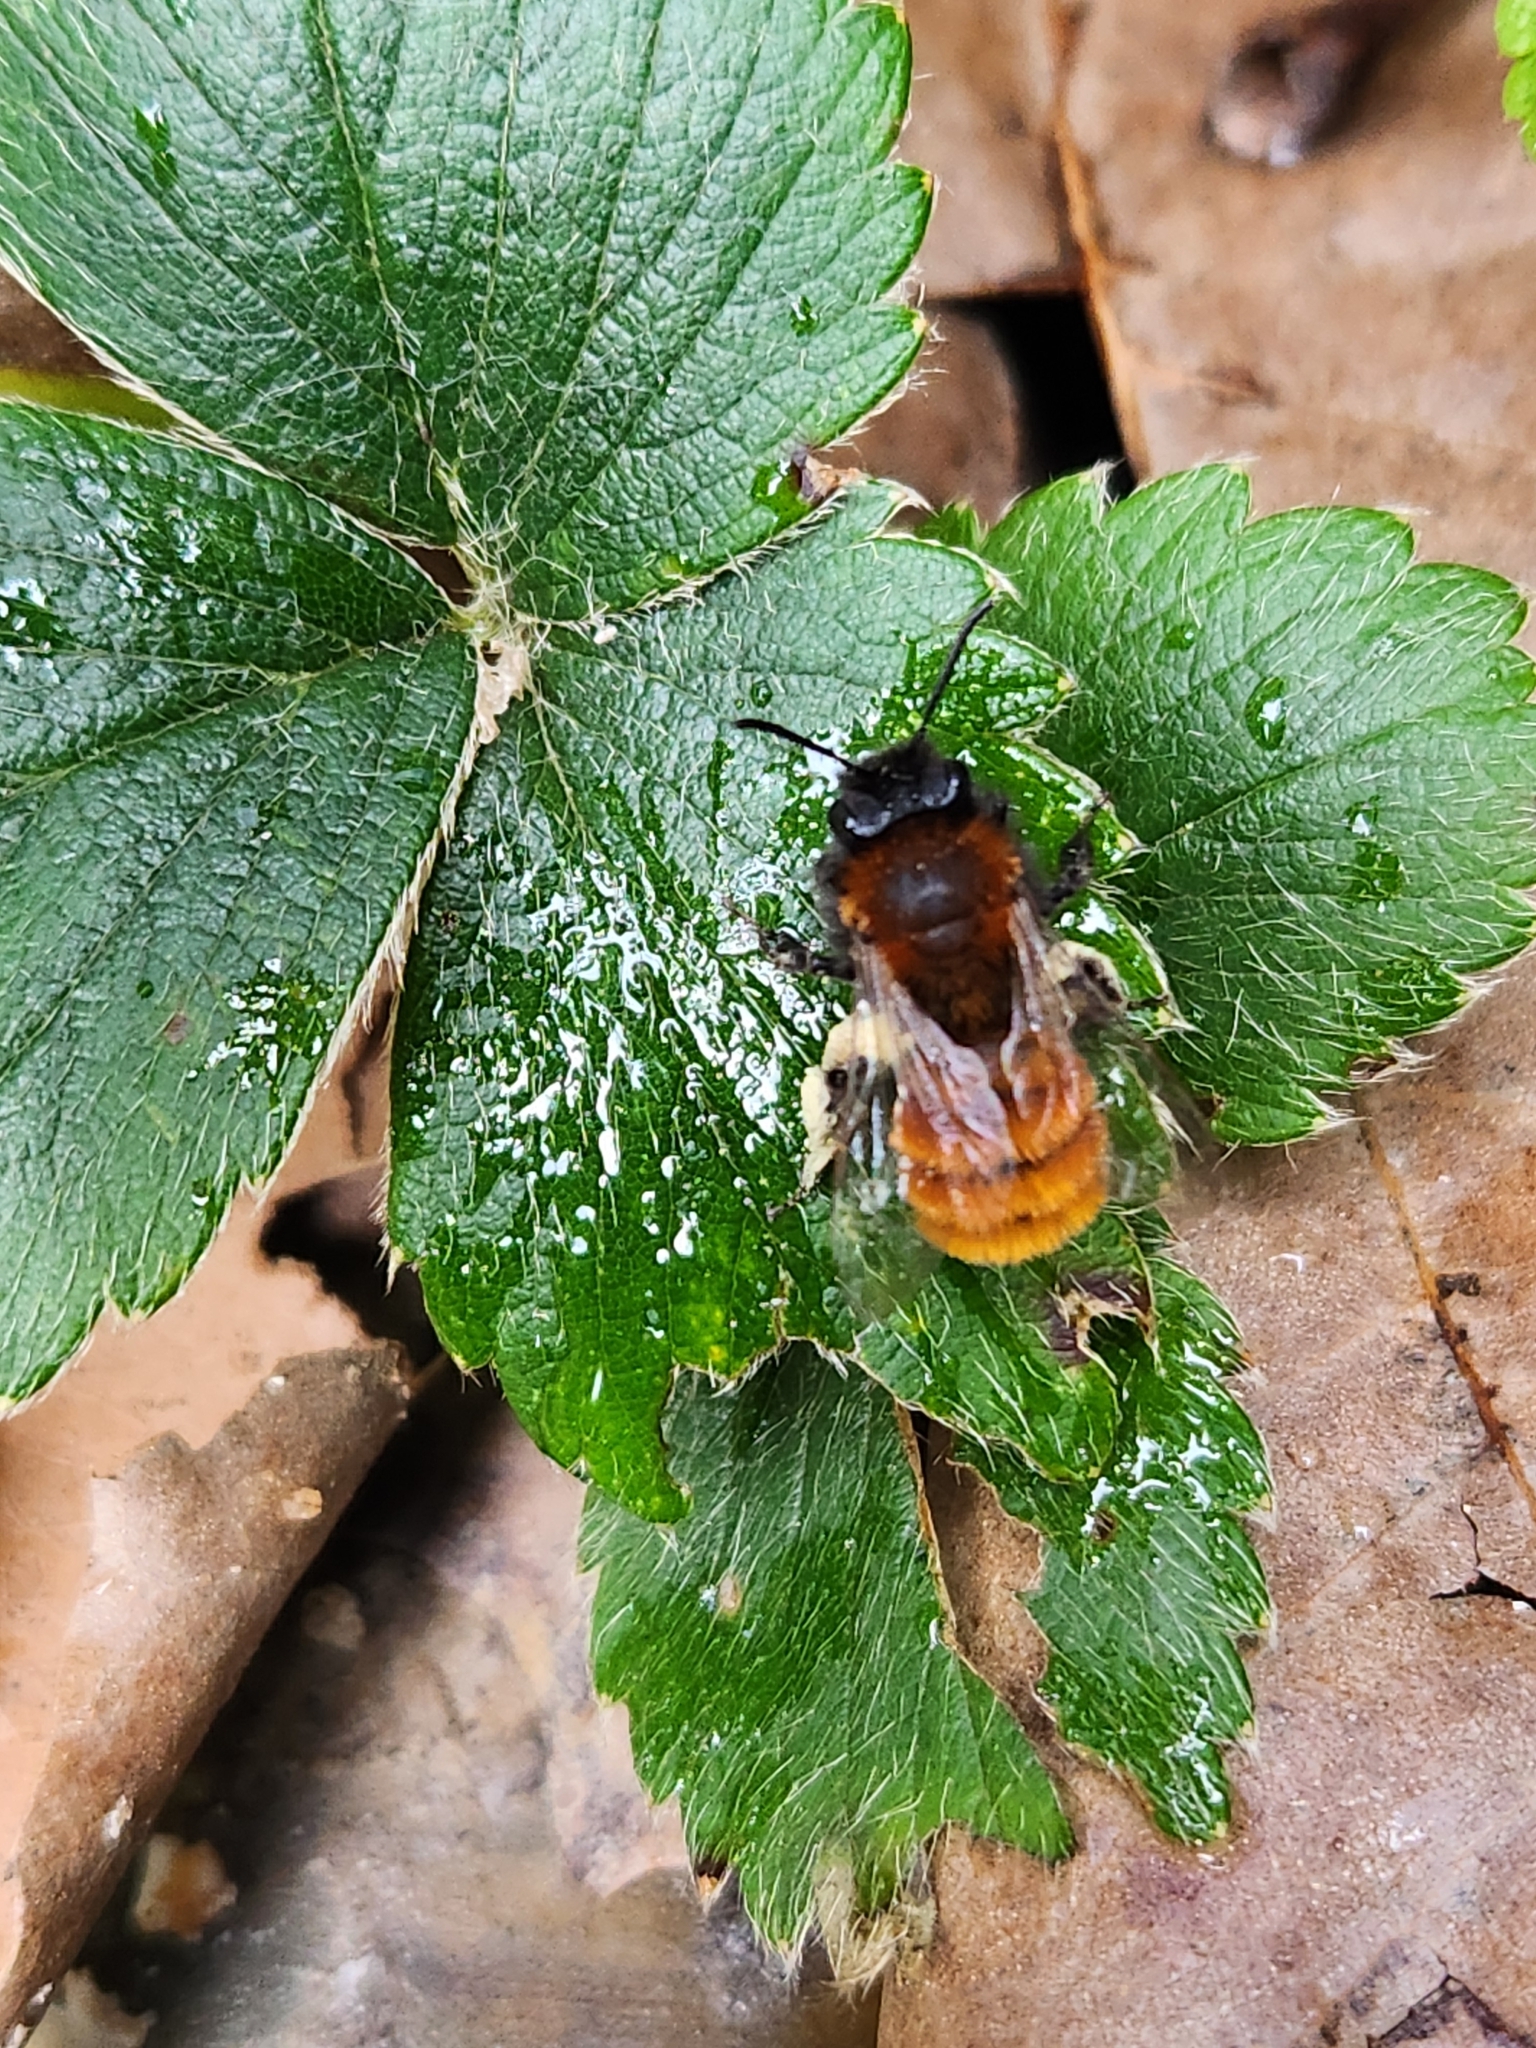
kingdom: Animalia
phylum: Arthropoda
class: Insecta
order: Hymenoptera
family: Andrenidae
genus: Andrena
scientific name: Andrena fulva
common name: Tawny mining bee
